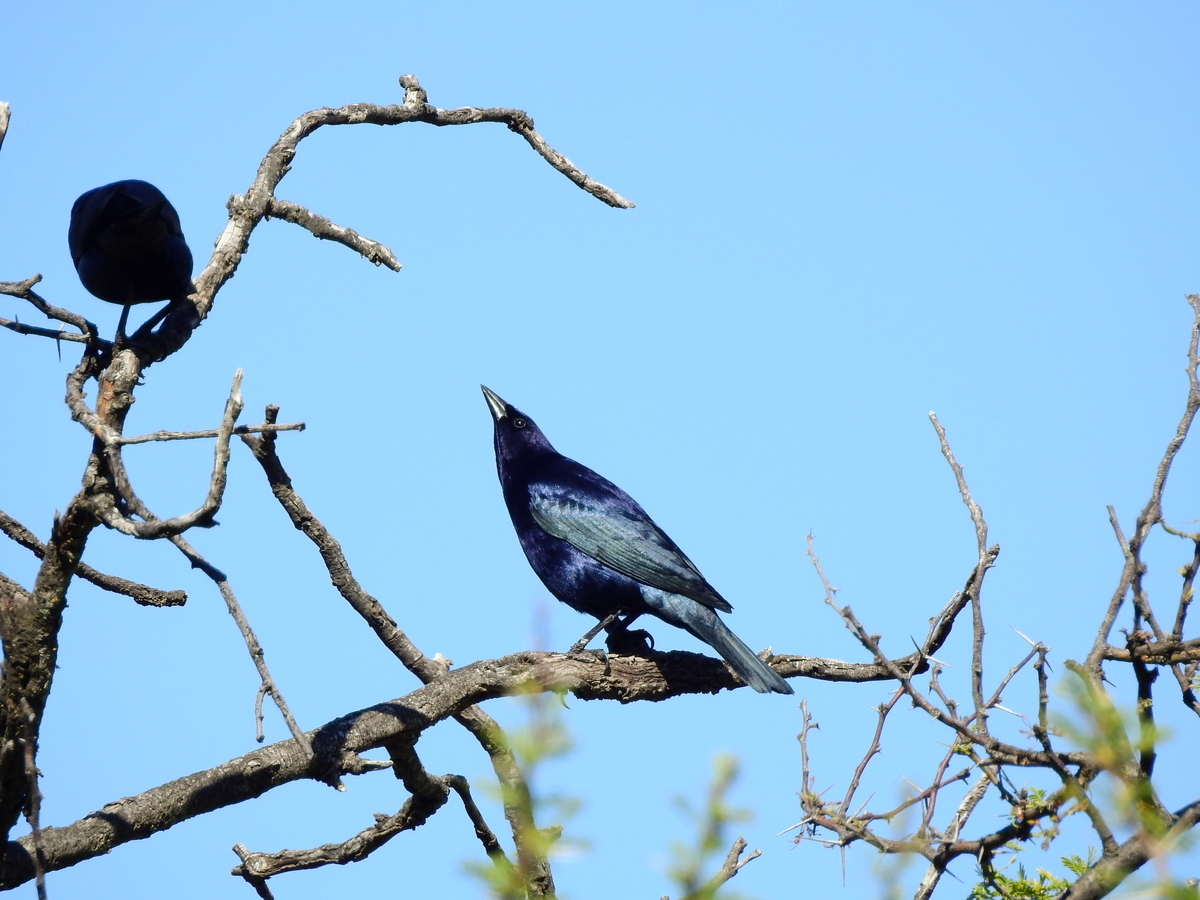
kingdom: Animalia
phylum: Chordata
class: Aves
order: Passeriformes
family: Icteridae
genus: Molothrus
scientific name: Molothrus bonariensis
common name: Shiny cowbird
